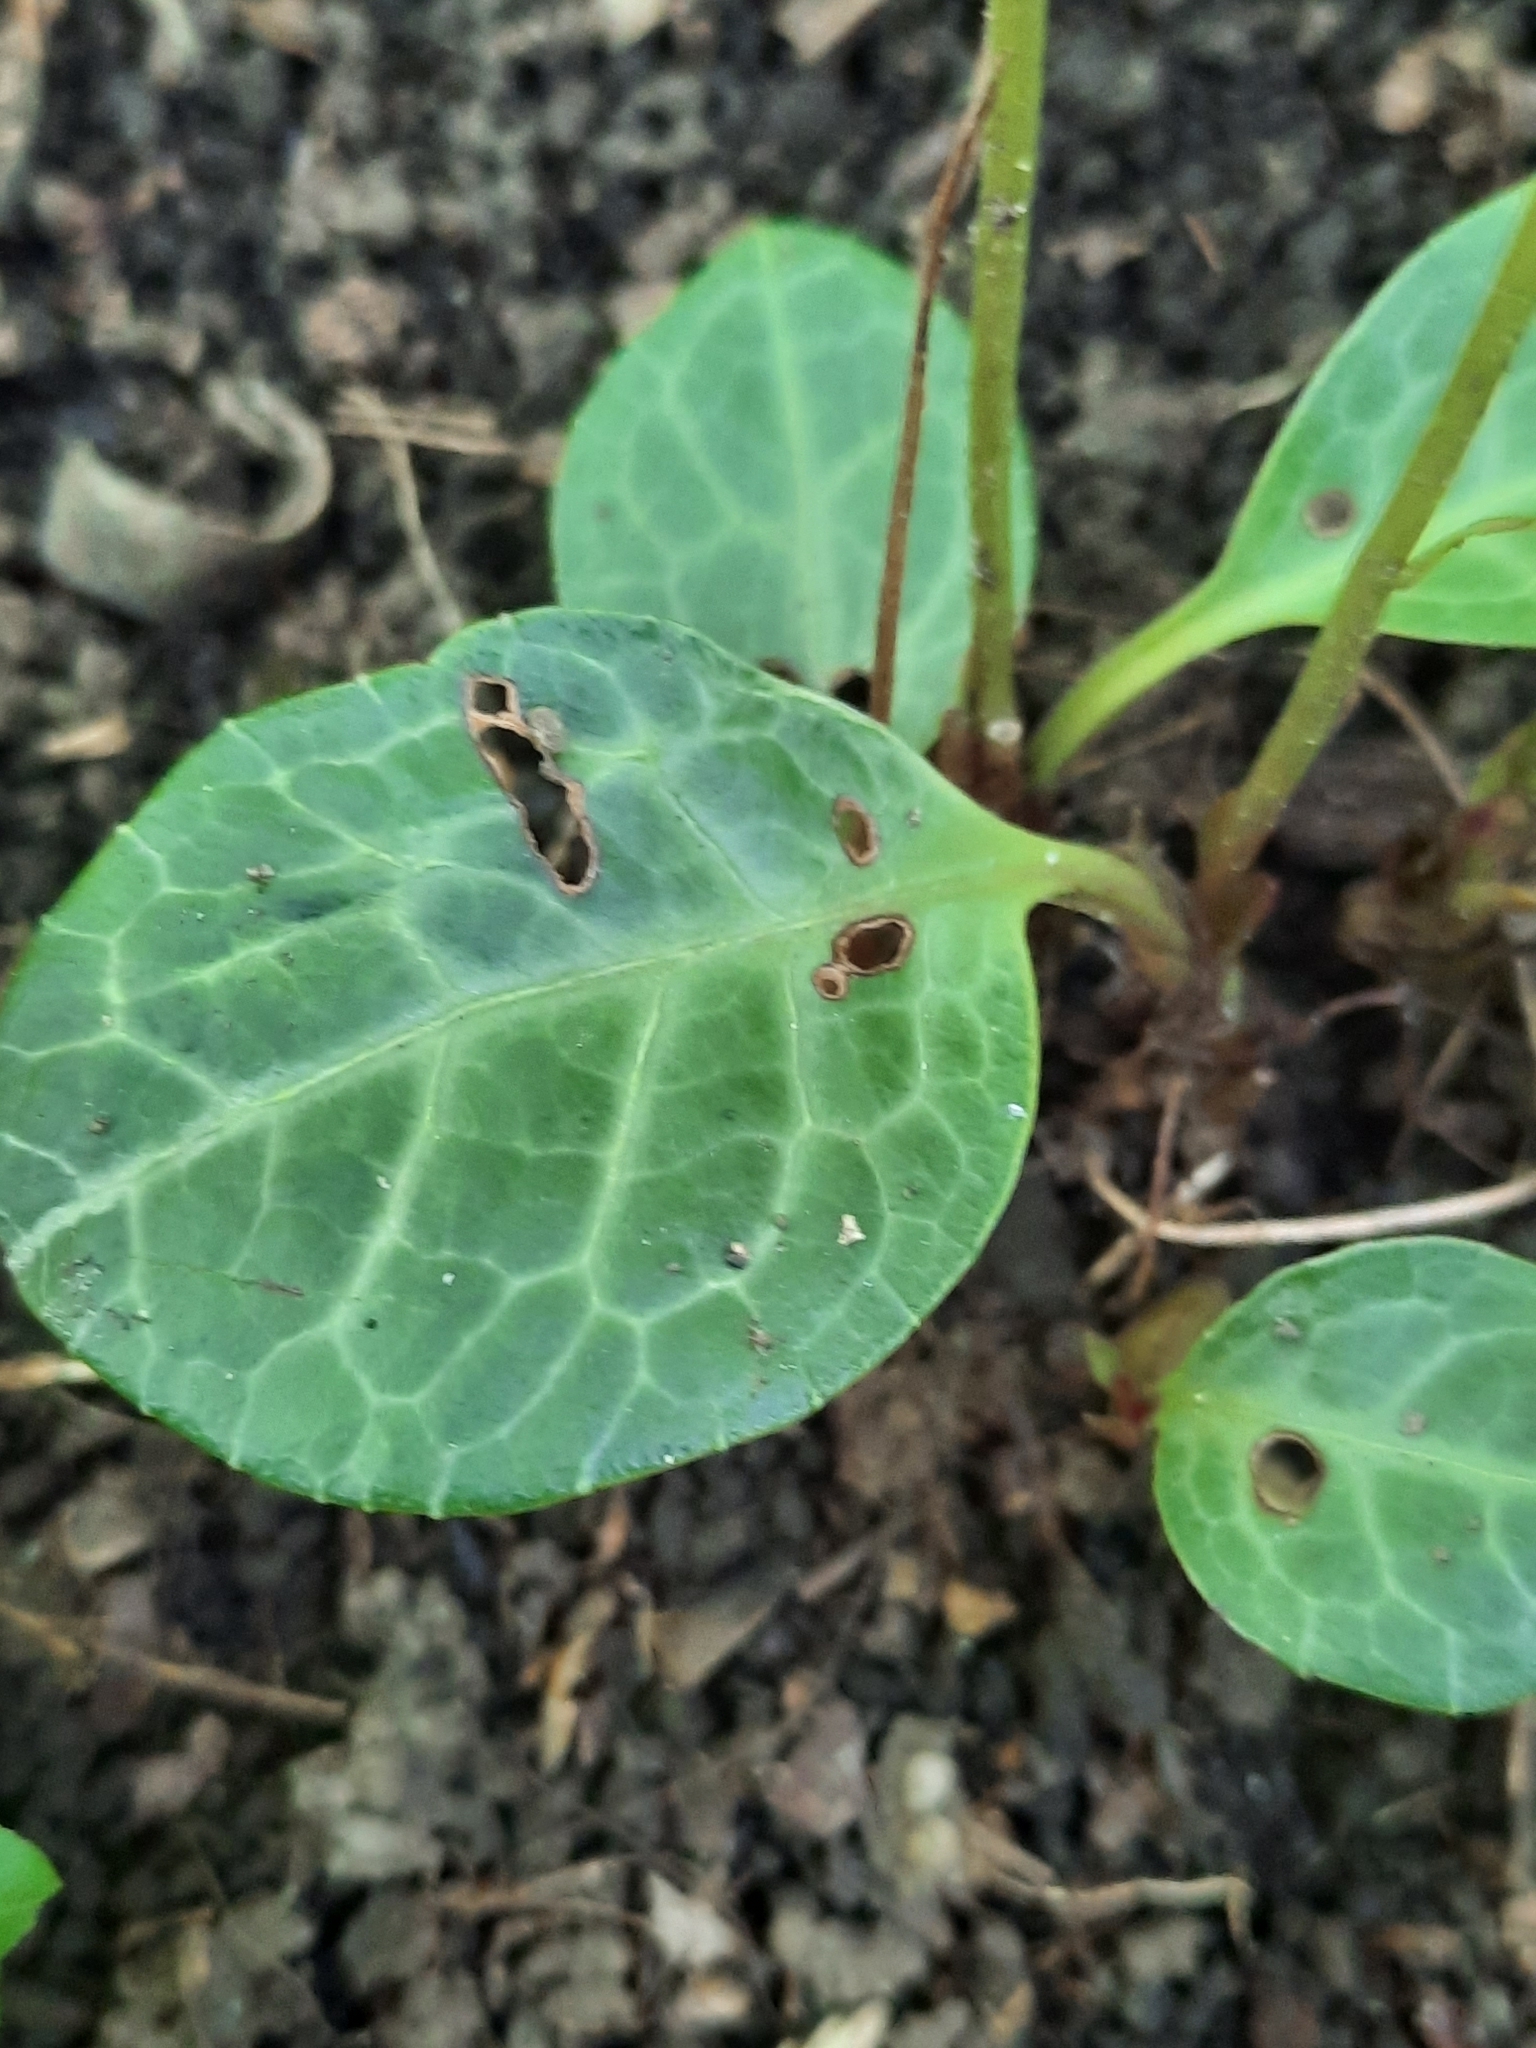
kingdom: Plantae
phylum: Tracheophyta
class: Magnoliopsida
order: Ericales
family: Ericaceae
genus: Pyrola
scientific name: Pyrola americana
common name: American wintergreen
